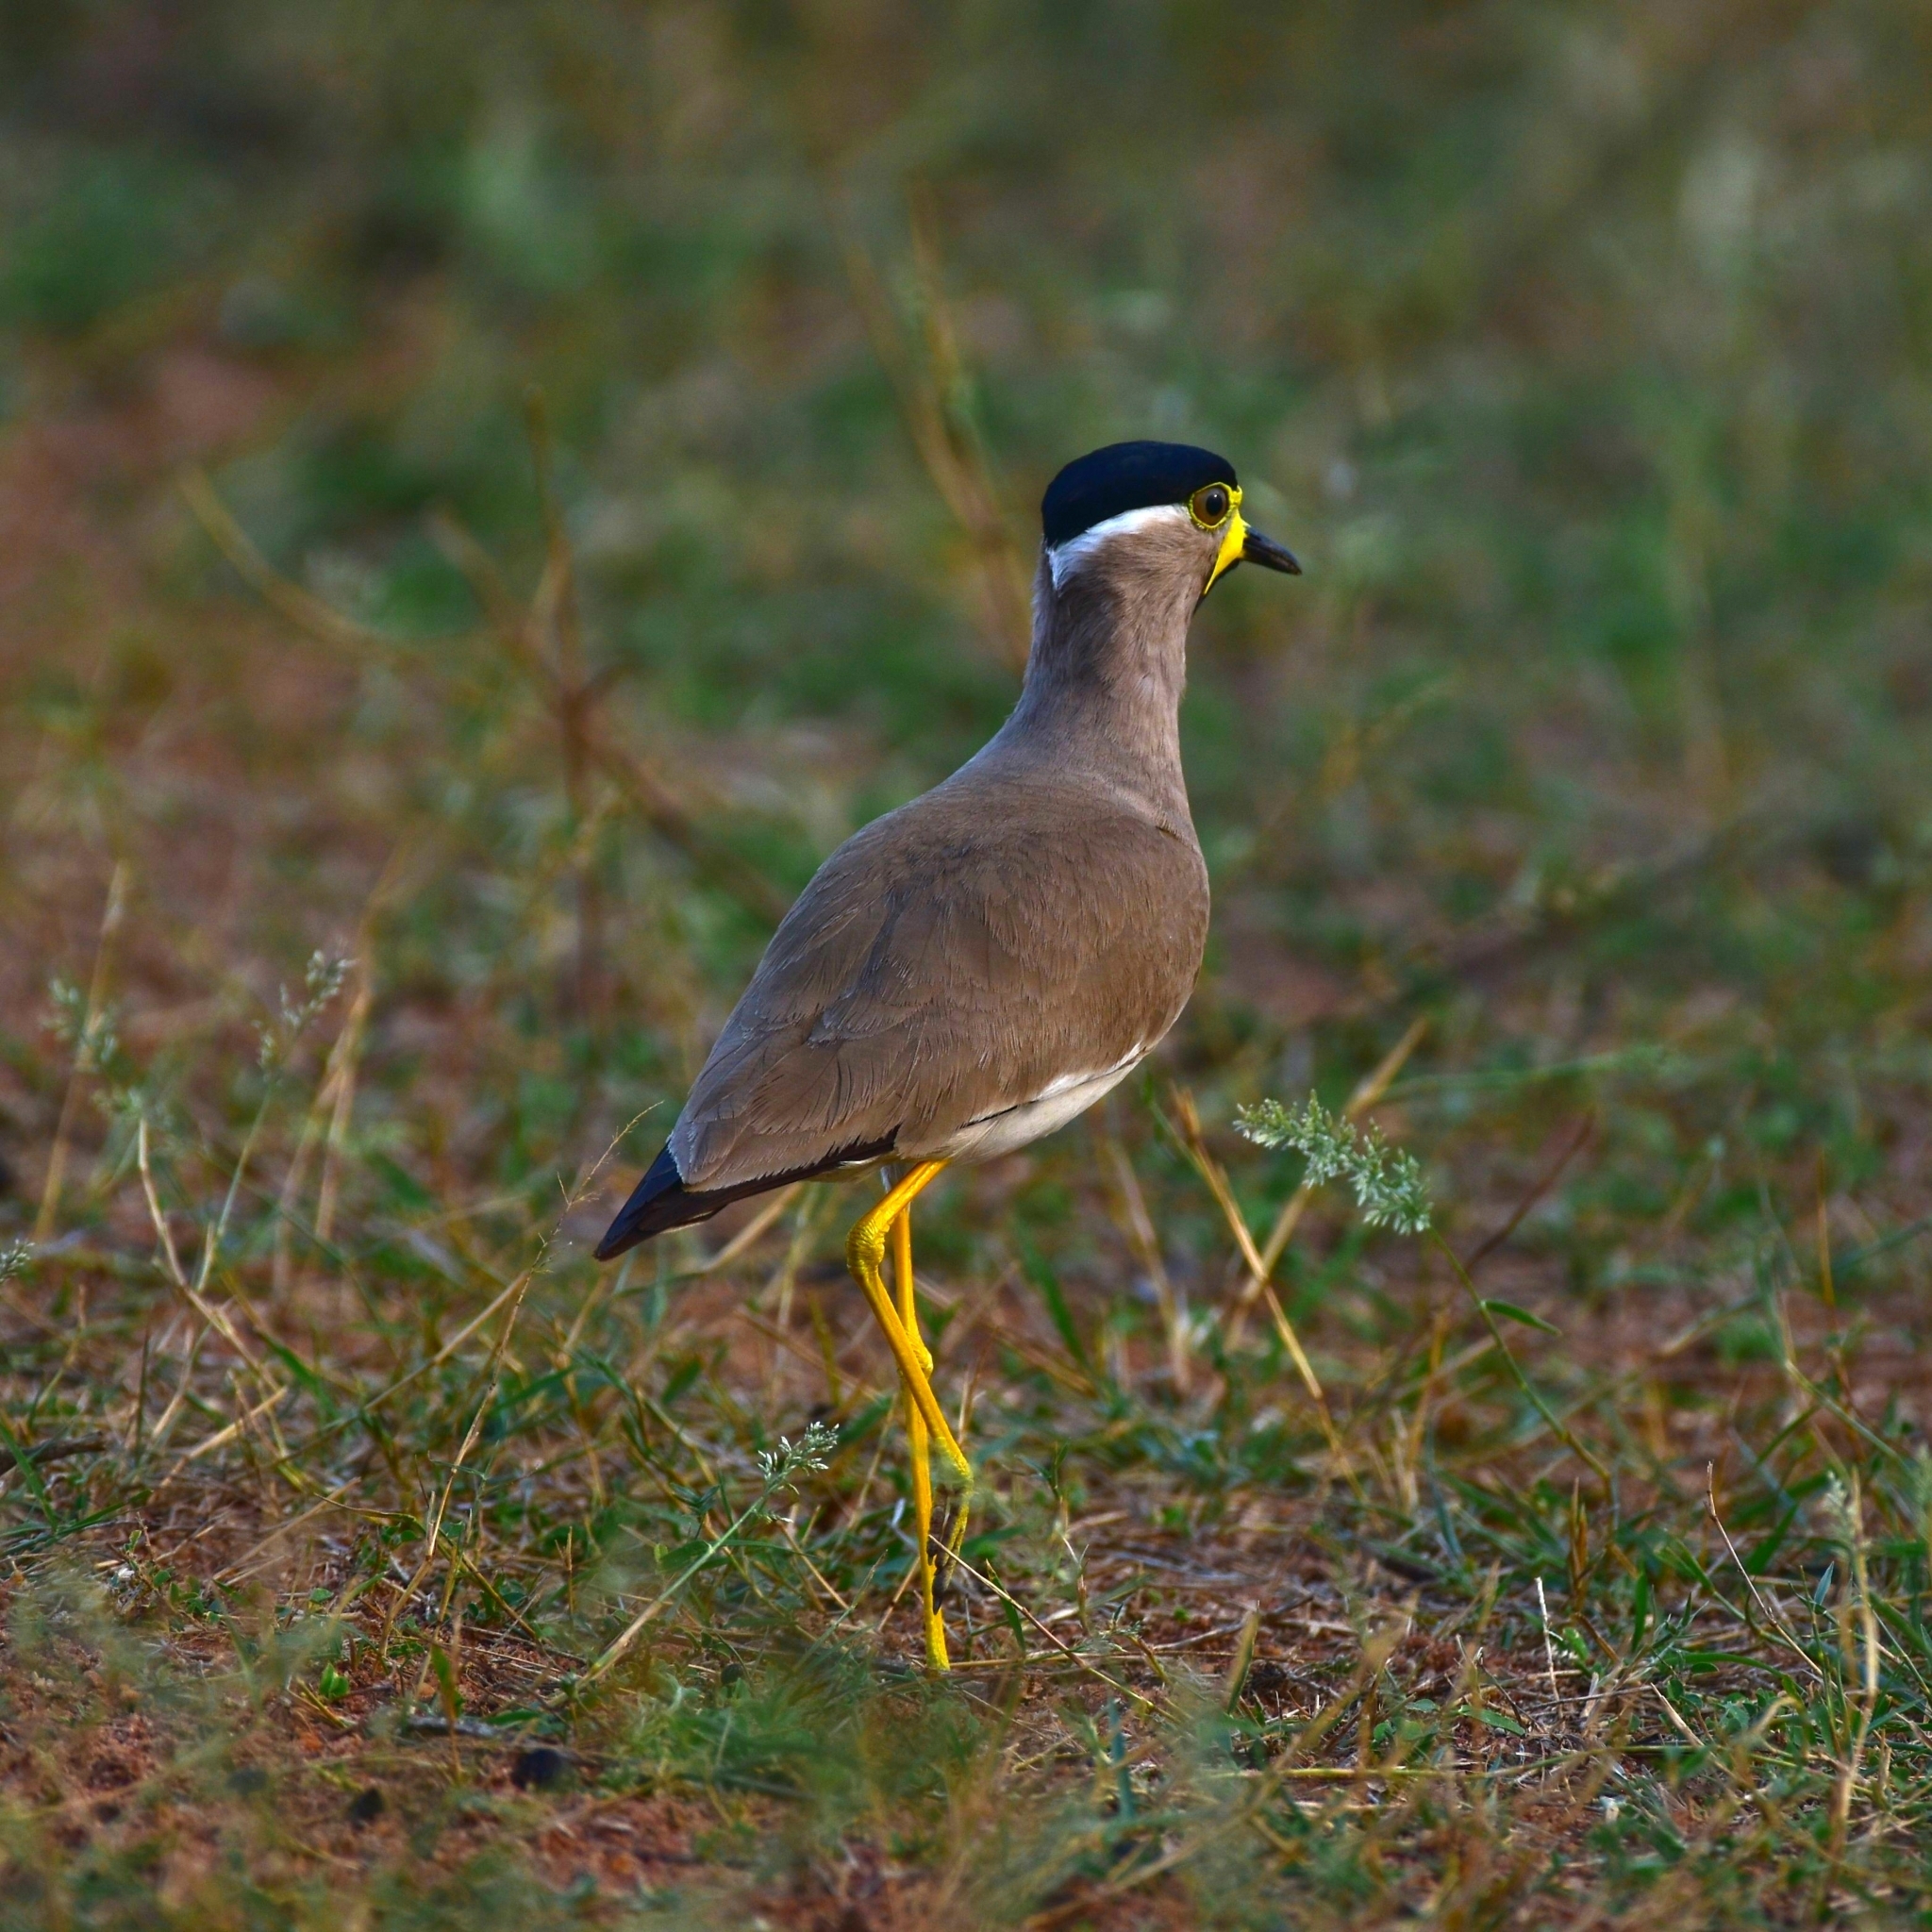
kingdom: Animalia
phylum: Chordata
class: Aves
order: Charadriiformes
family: Charadriidae
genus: Vanellus
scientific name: Vanellus malabaricus
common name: Yellow-wattled lapwing
